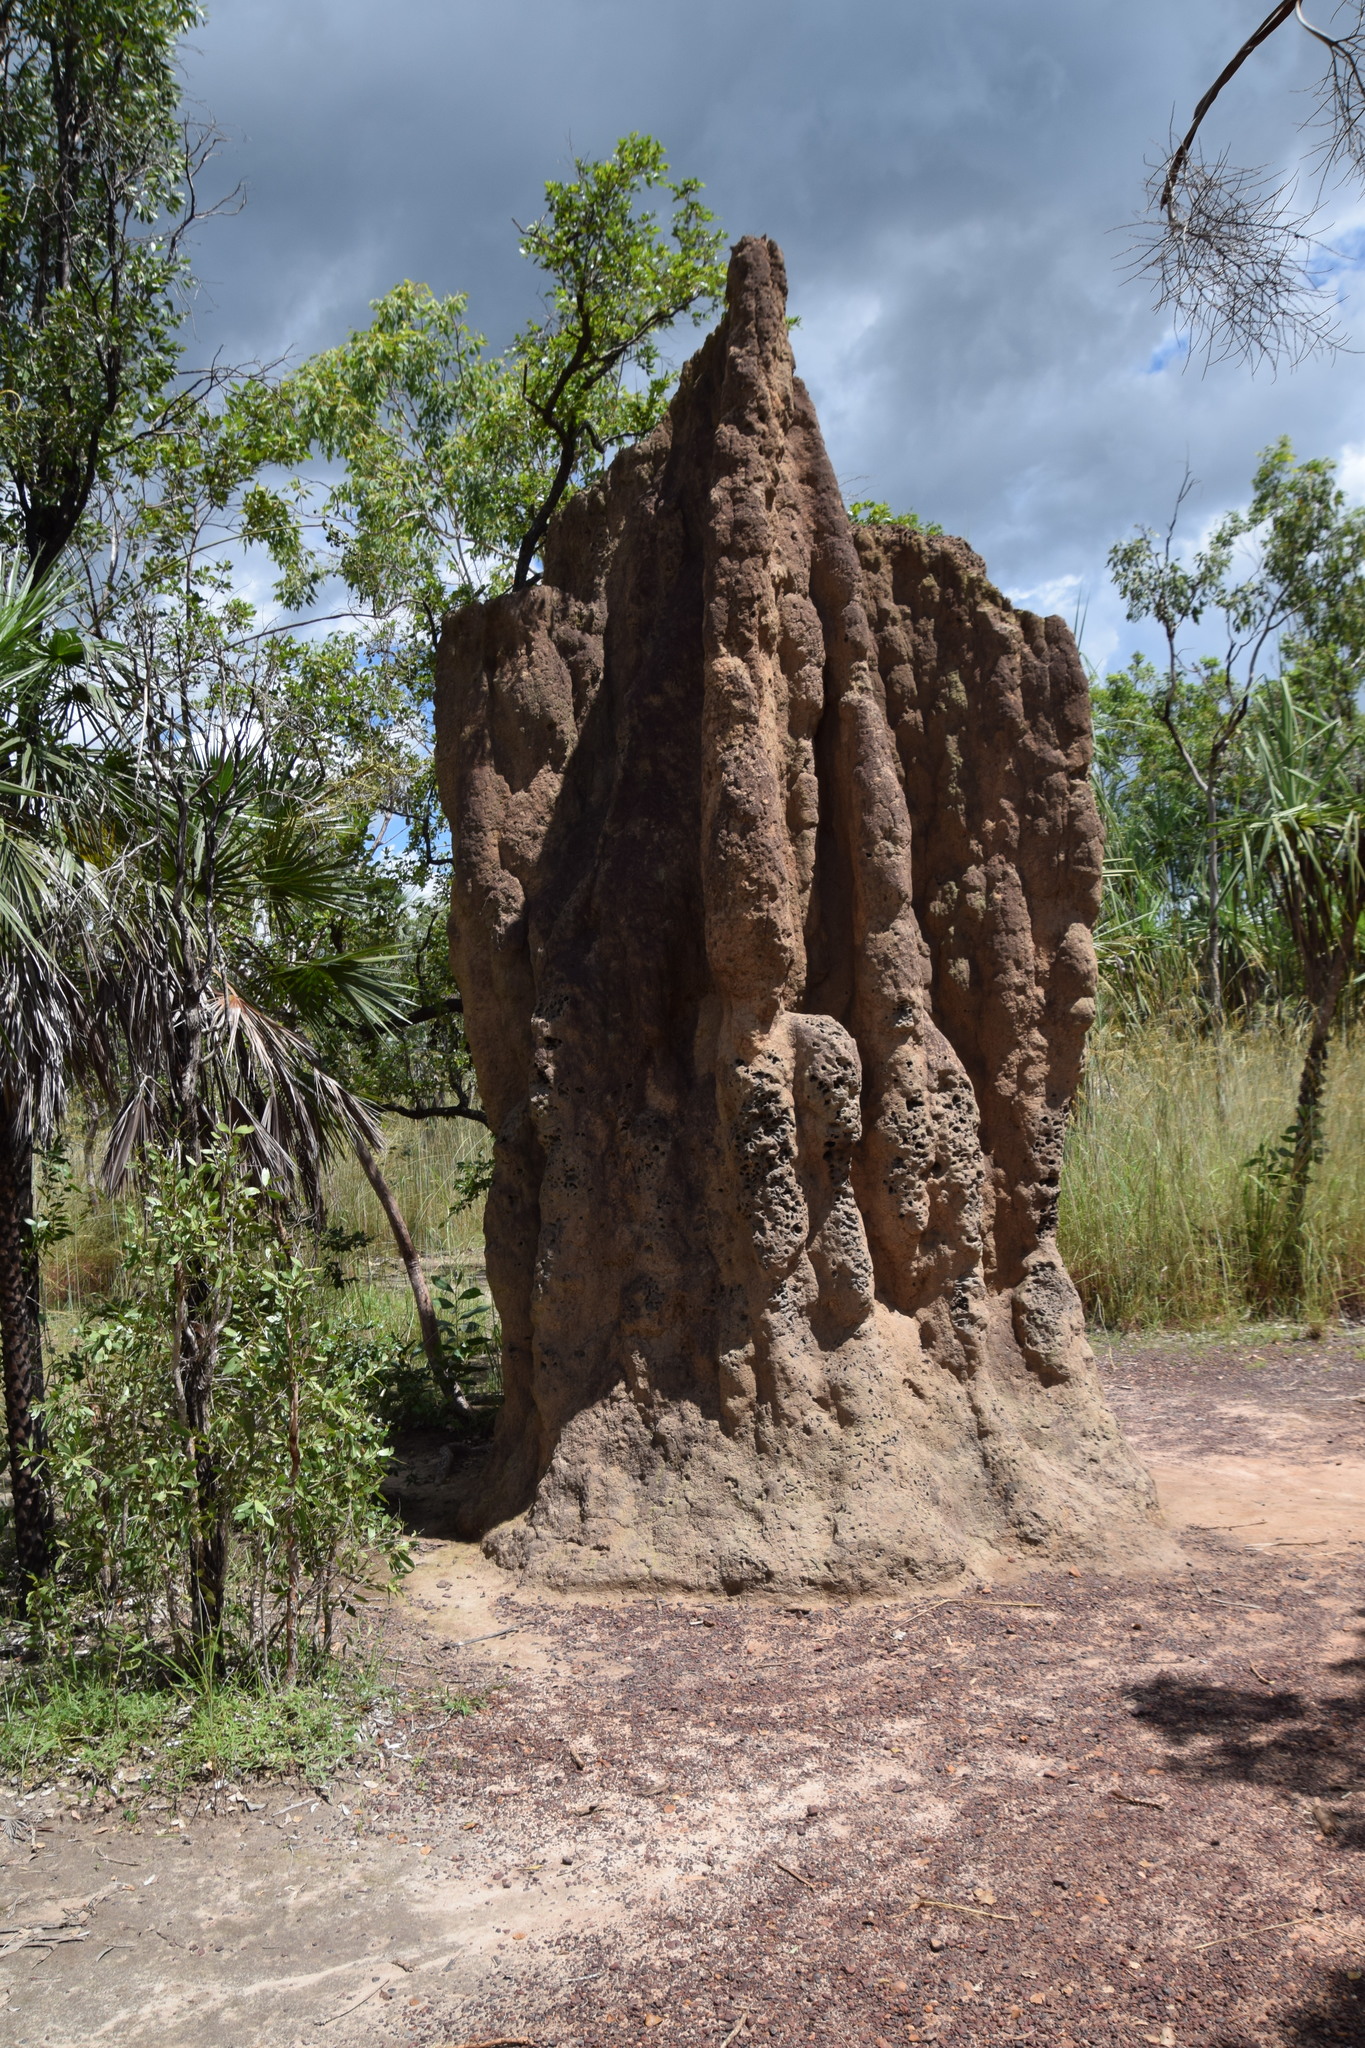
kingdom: Animalia
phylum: Arthropoda
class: Insecta
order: Blattodea
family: Termitidae
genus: Nasutitermes
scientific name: Nasutitermes triodiae
